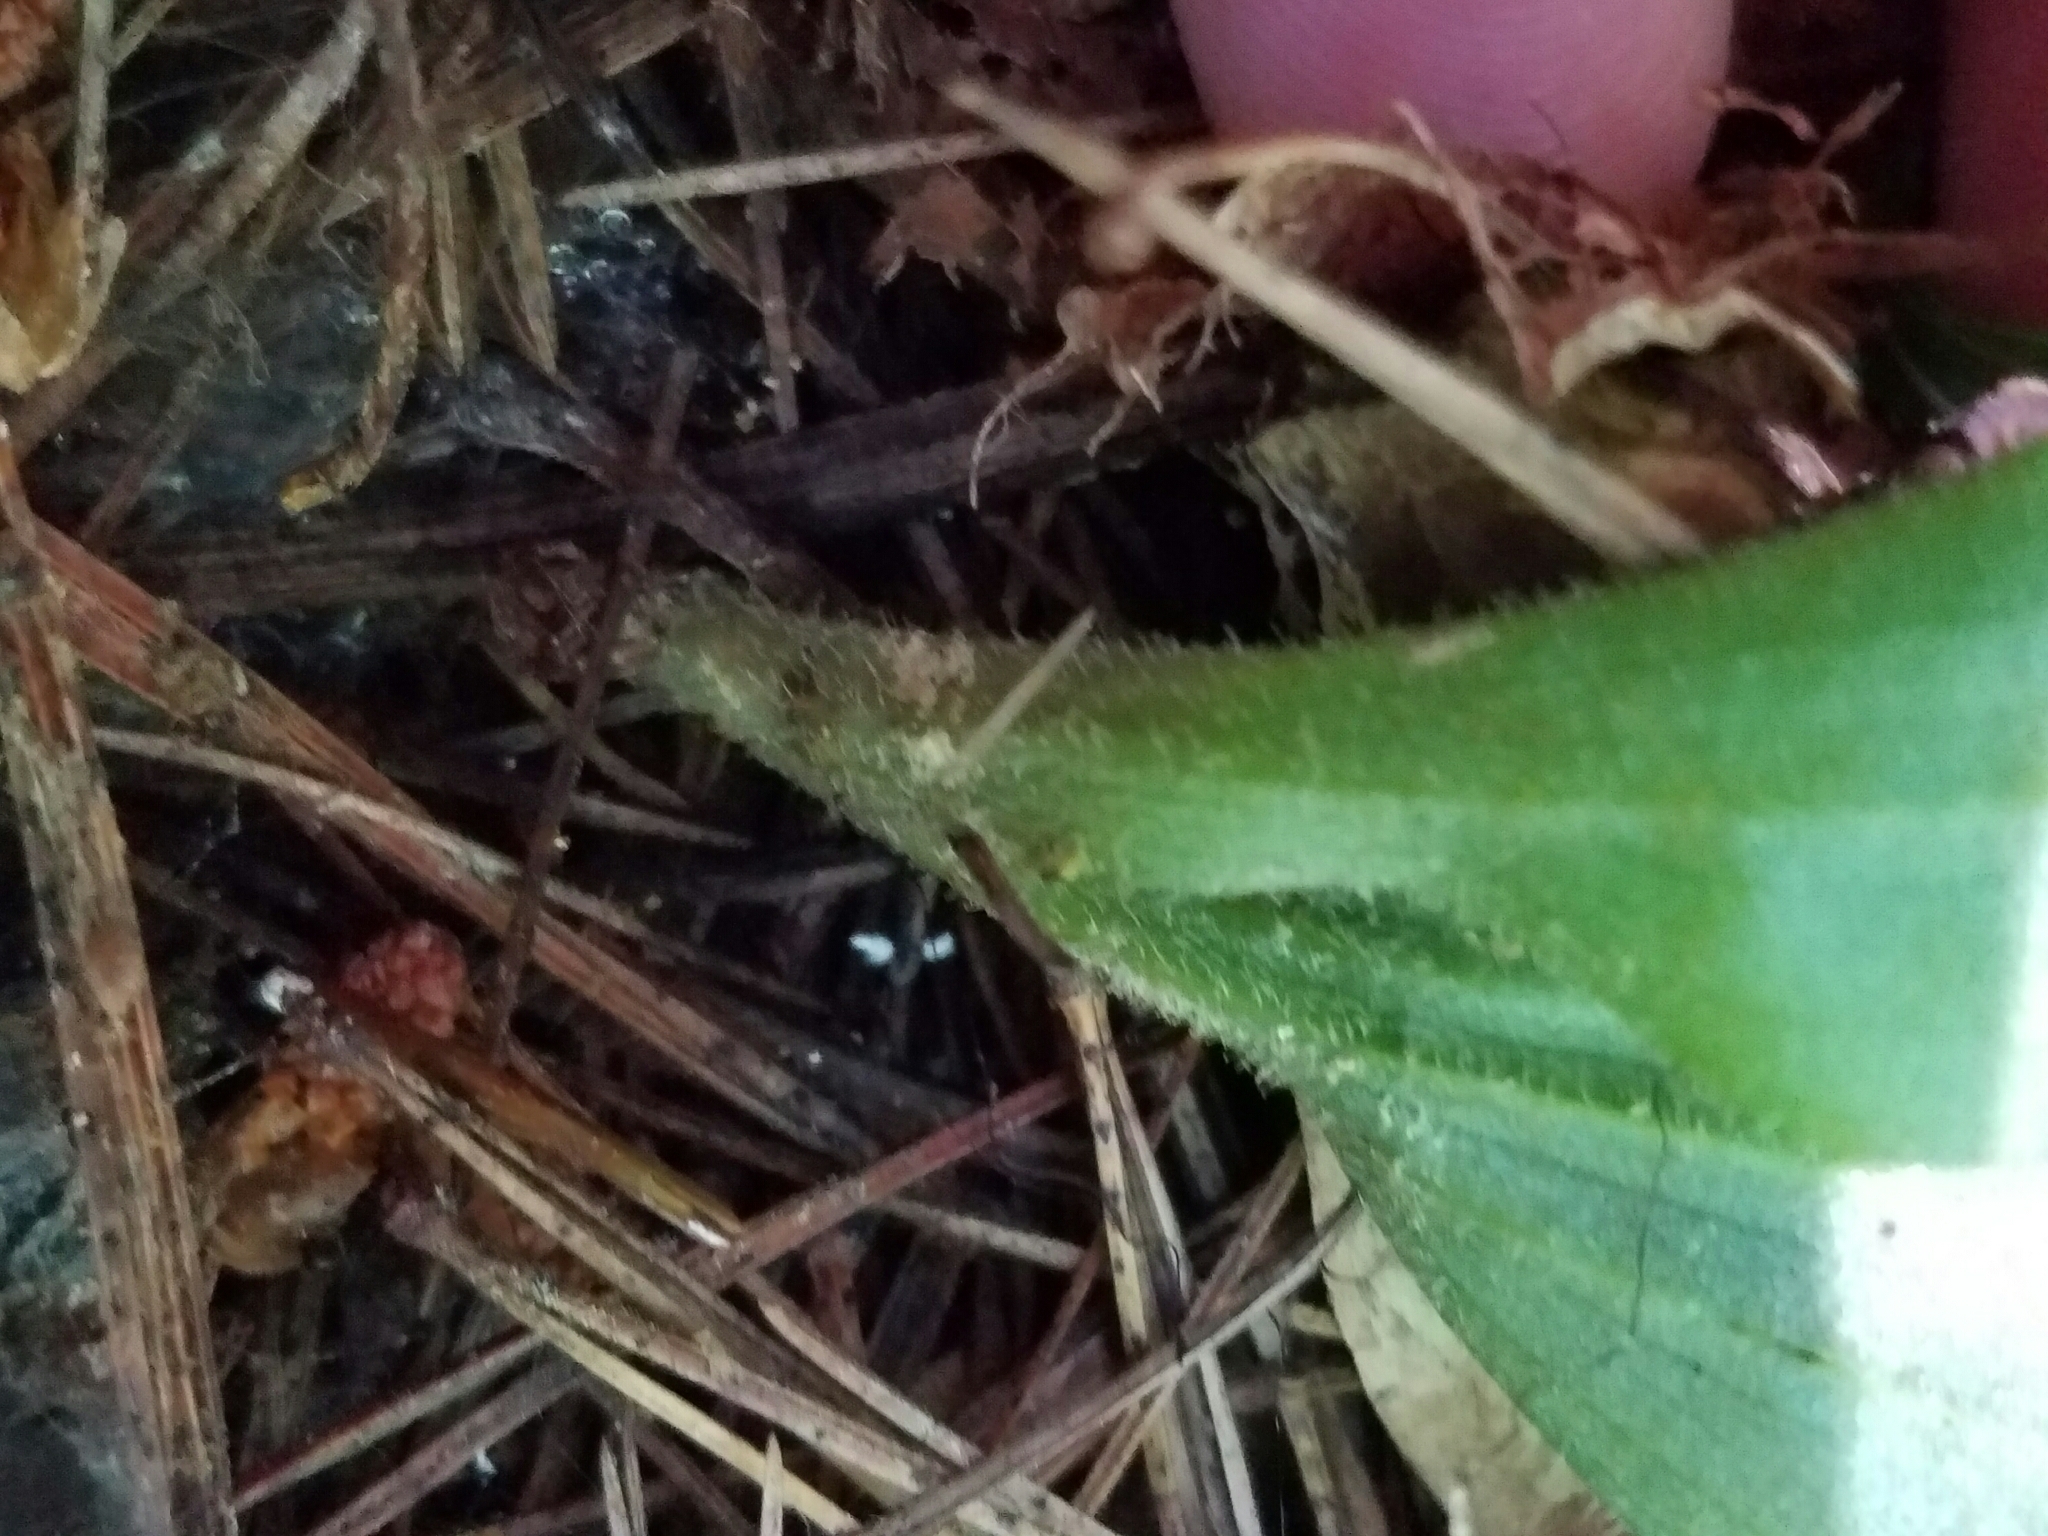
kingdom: Plantae
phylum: Tracheophyta
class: Liliopsida
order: Asparagales
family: Orchidaceae
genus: Cypripedium
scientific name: Cypripedium acaule
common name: Pink lady's-slipper
